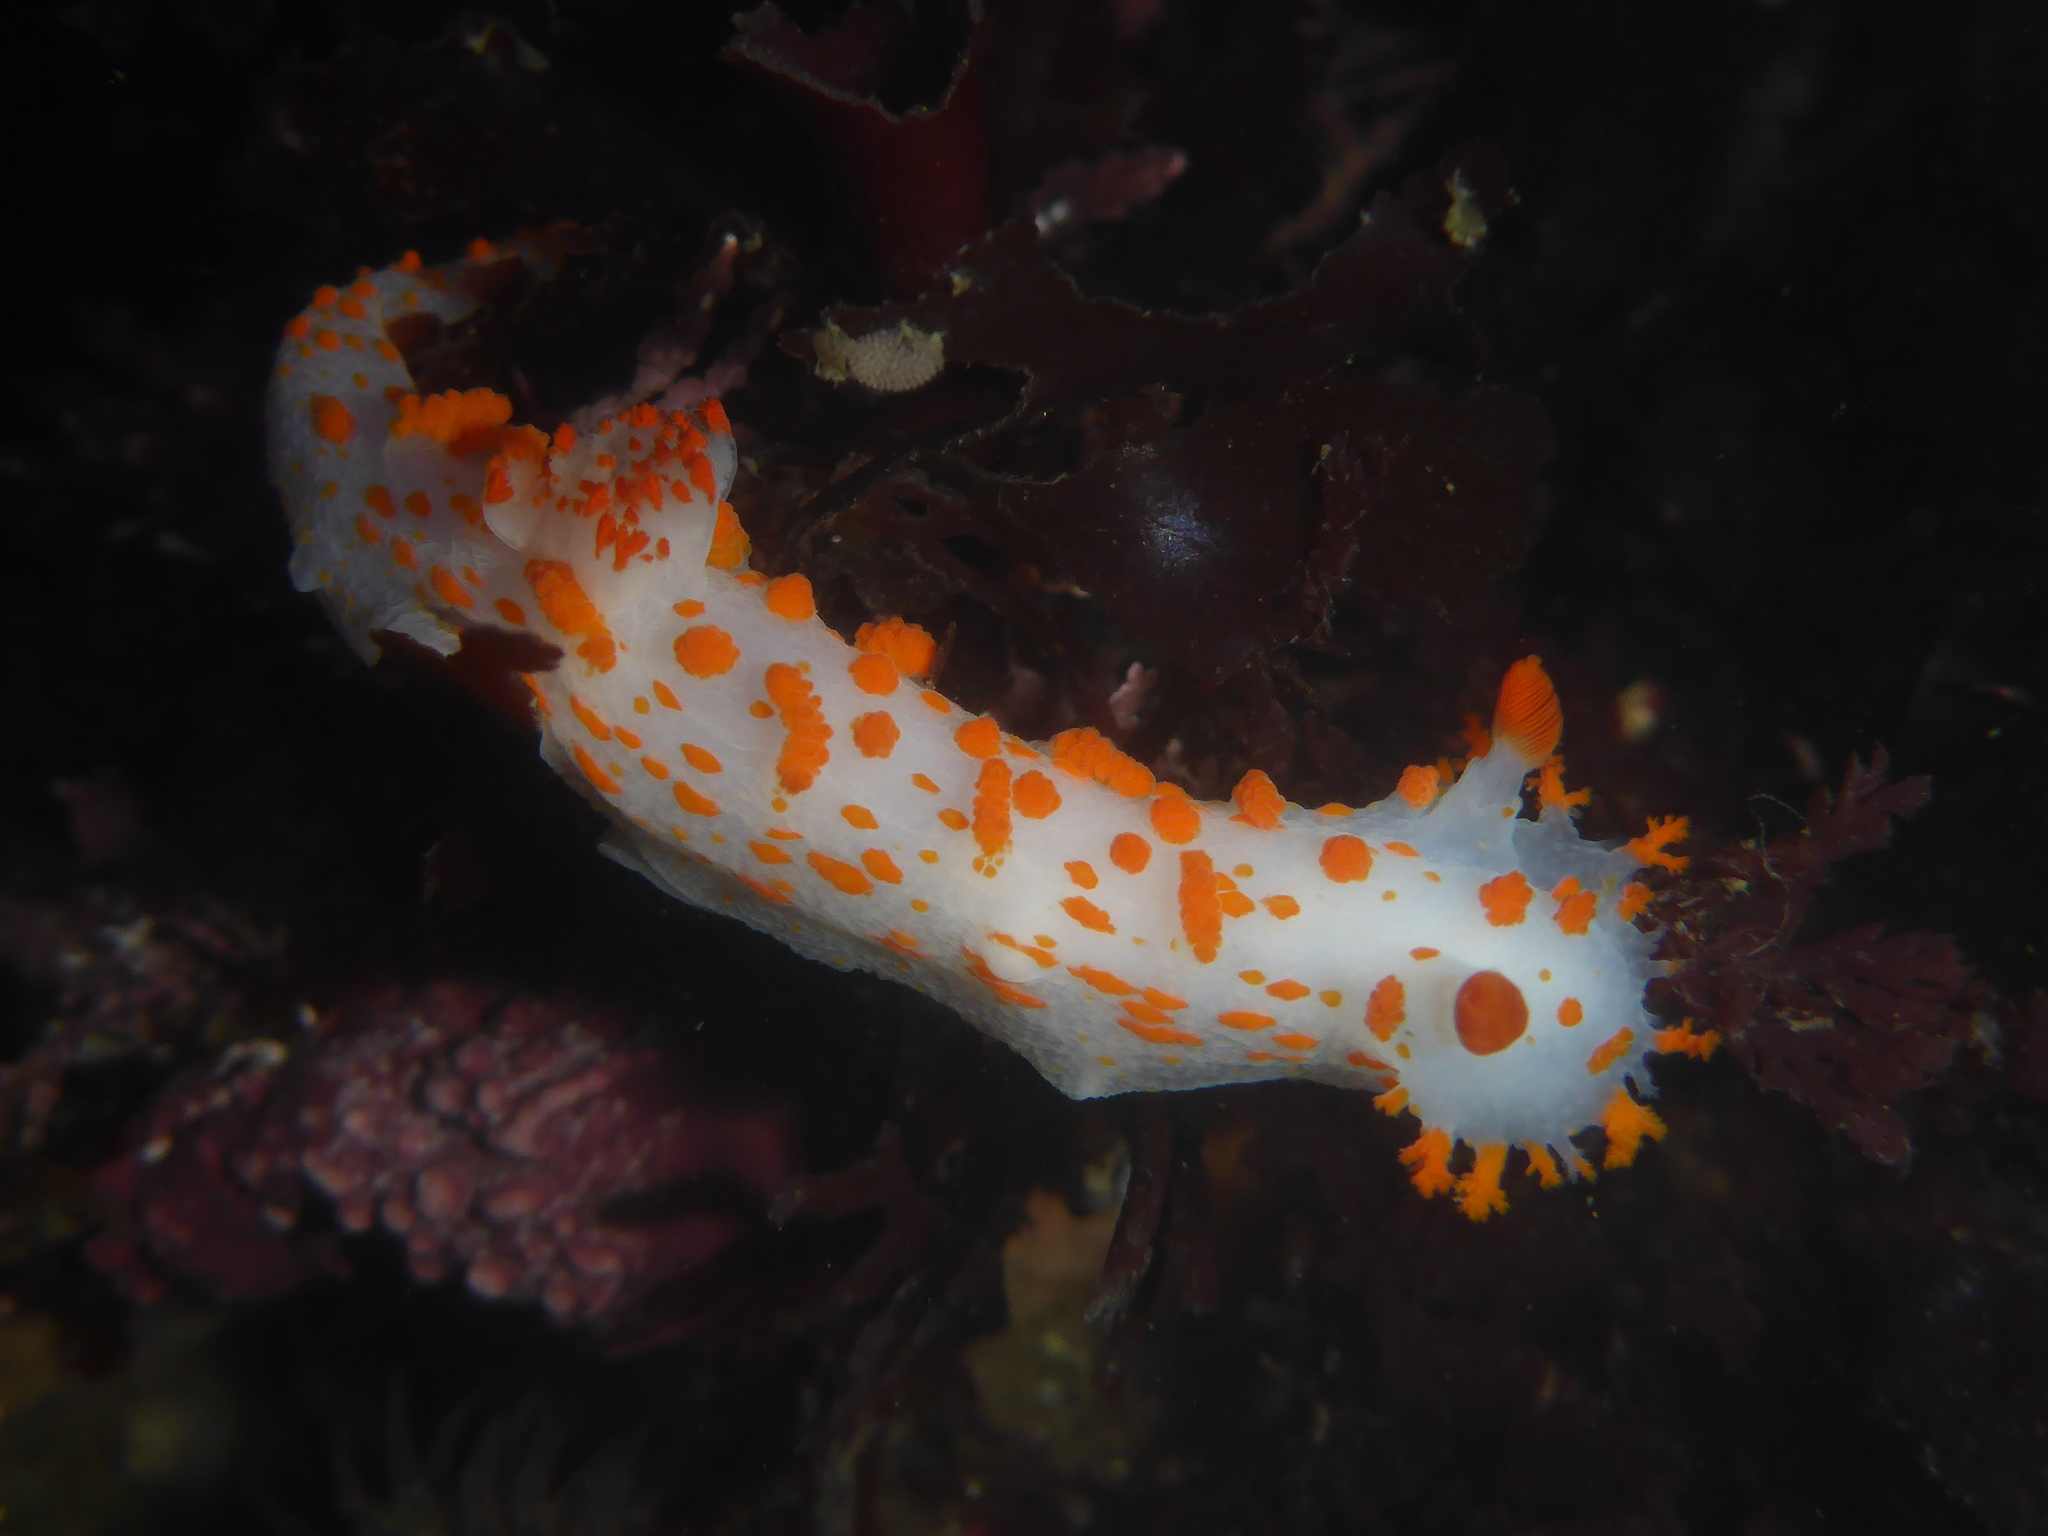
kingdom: Animalia
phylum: Mollusca
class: Gastropoda
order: Nudibranchia
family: Polyceridae
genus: Triopha
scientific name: Triopha catalinae
